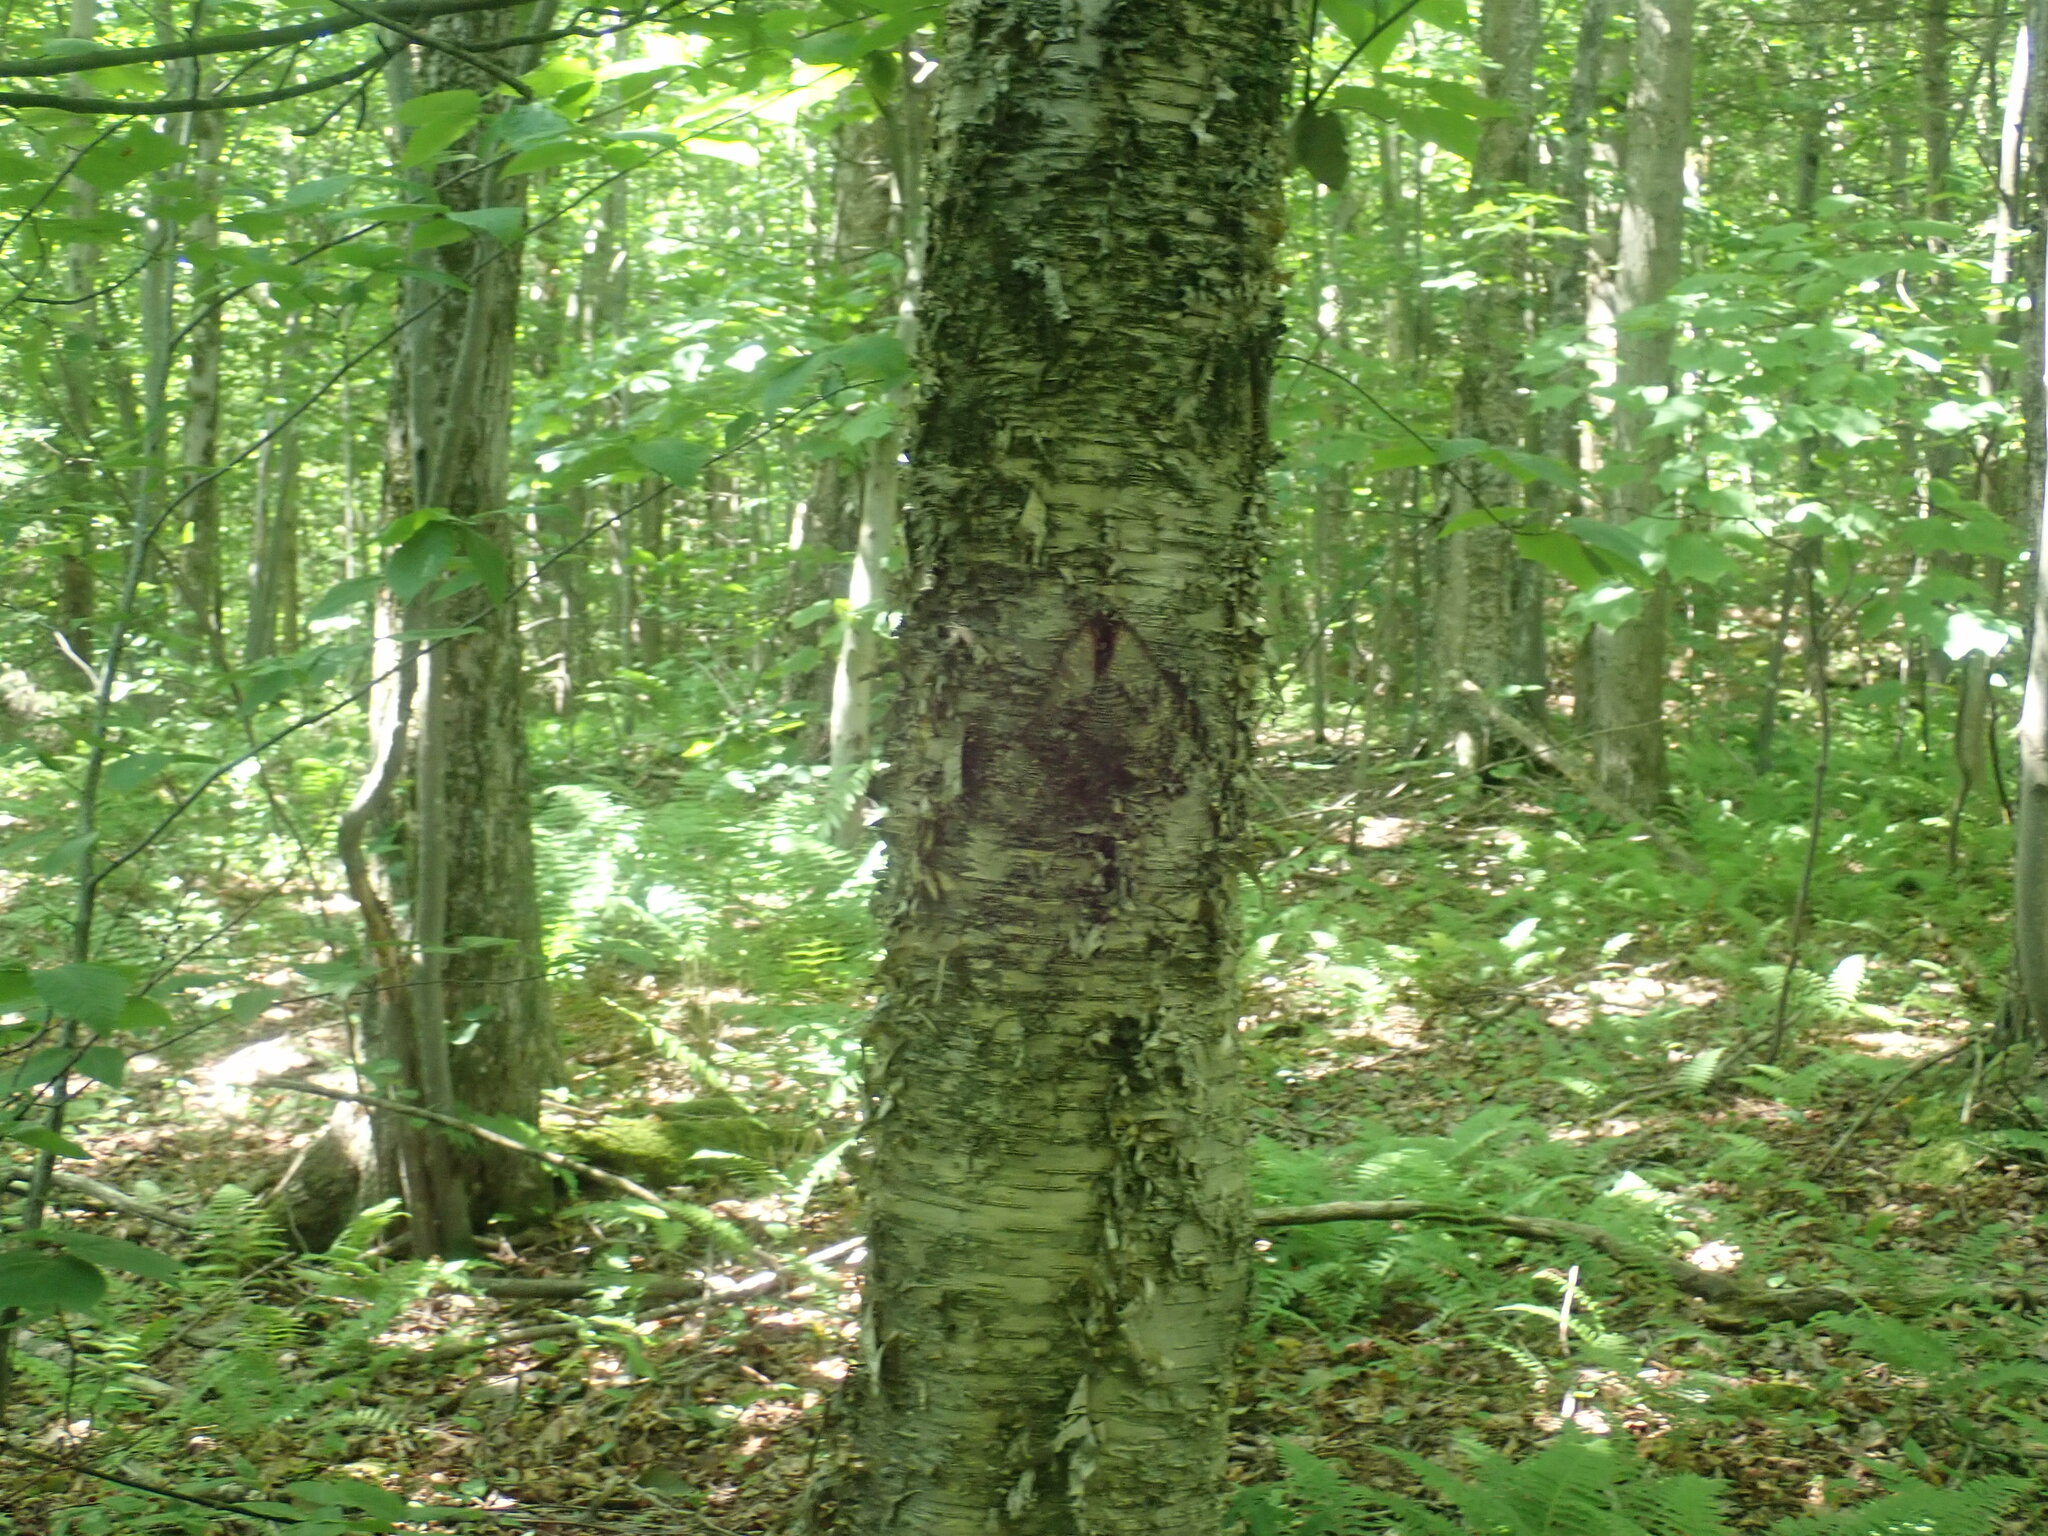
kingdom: Plantae
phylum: Tracheophyta
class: Magnoliopsida
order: Fagales
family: Betulaceae
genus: Betula
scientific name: Betula alleghaniensis
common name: Yellow birch
